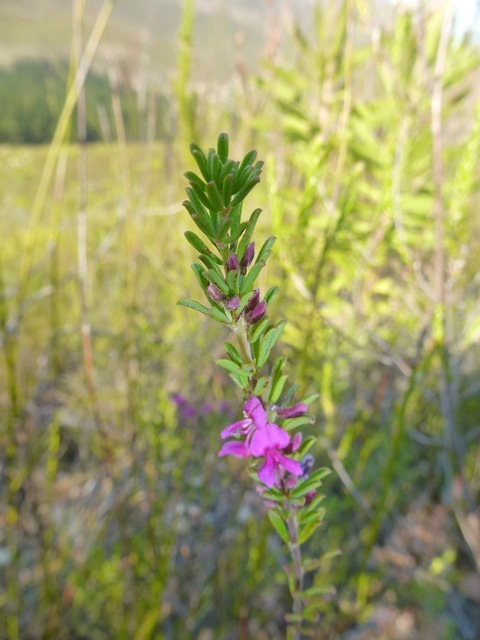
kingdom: Plantae
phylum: Tracheophyta
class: Magnoliopsida
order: Fabales
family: Fabaceae
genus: Indigofera
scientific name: Indigofera pappei
